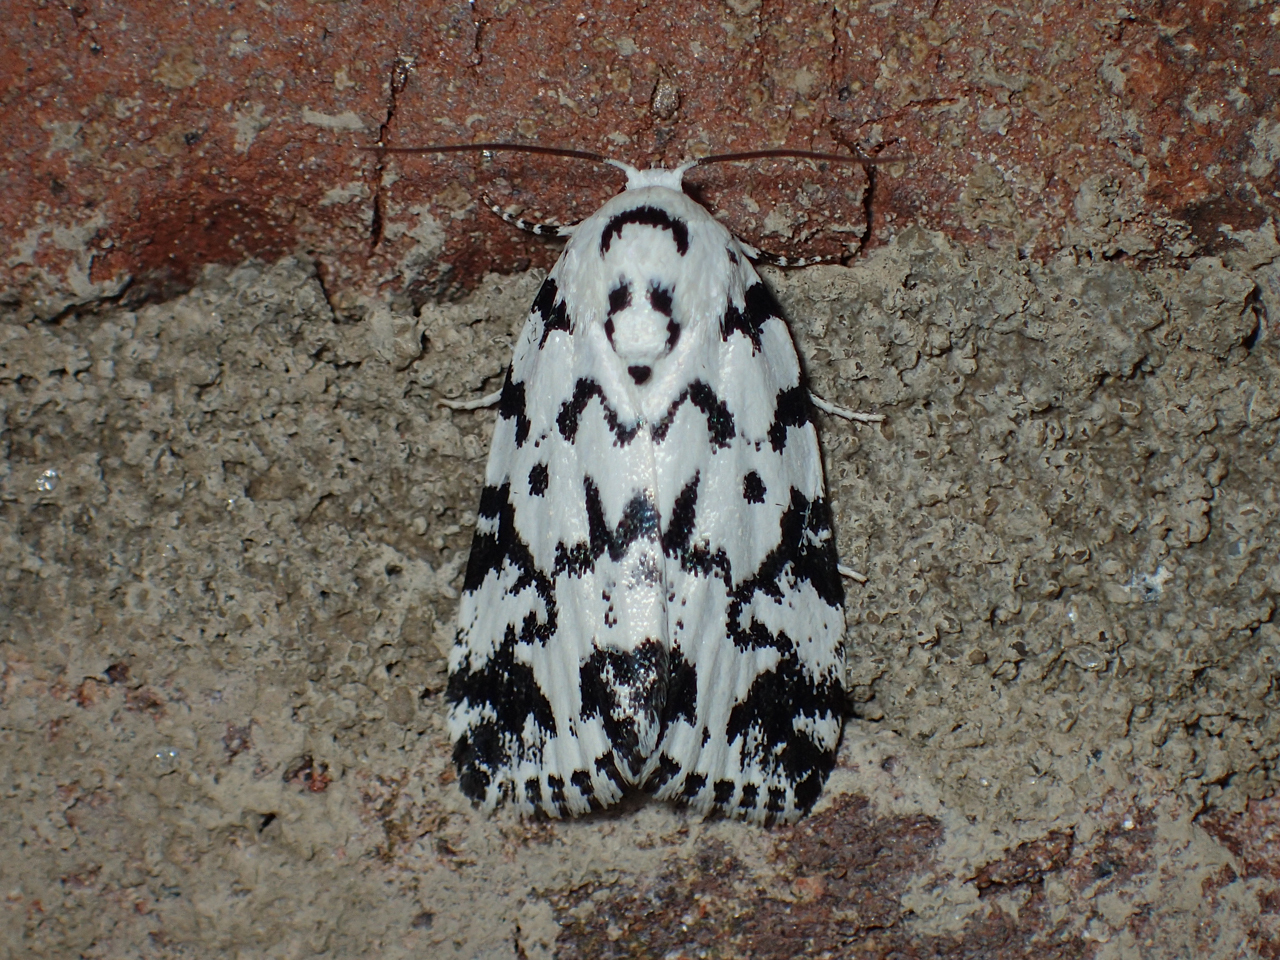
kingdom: Animalia
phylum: Arthropoda
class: Insecta
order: Lepidoptera
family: Noctuidae
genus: Polygrammate
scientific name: Polygrammate hebraeicum
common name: Hebrew moth
